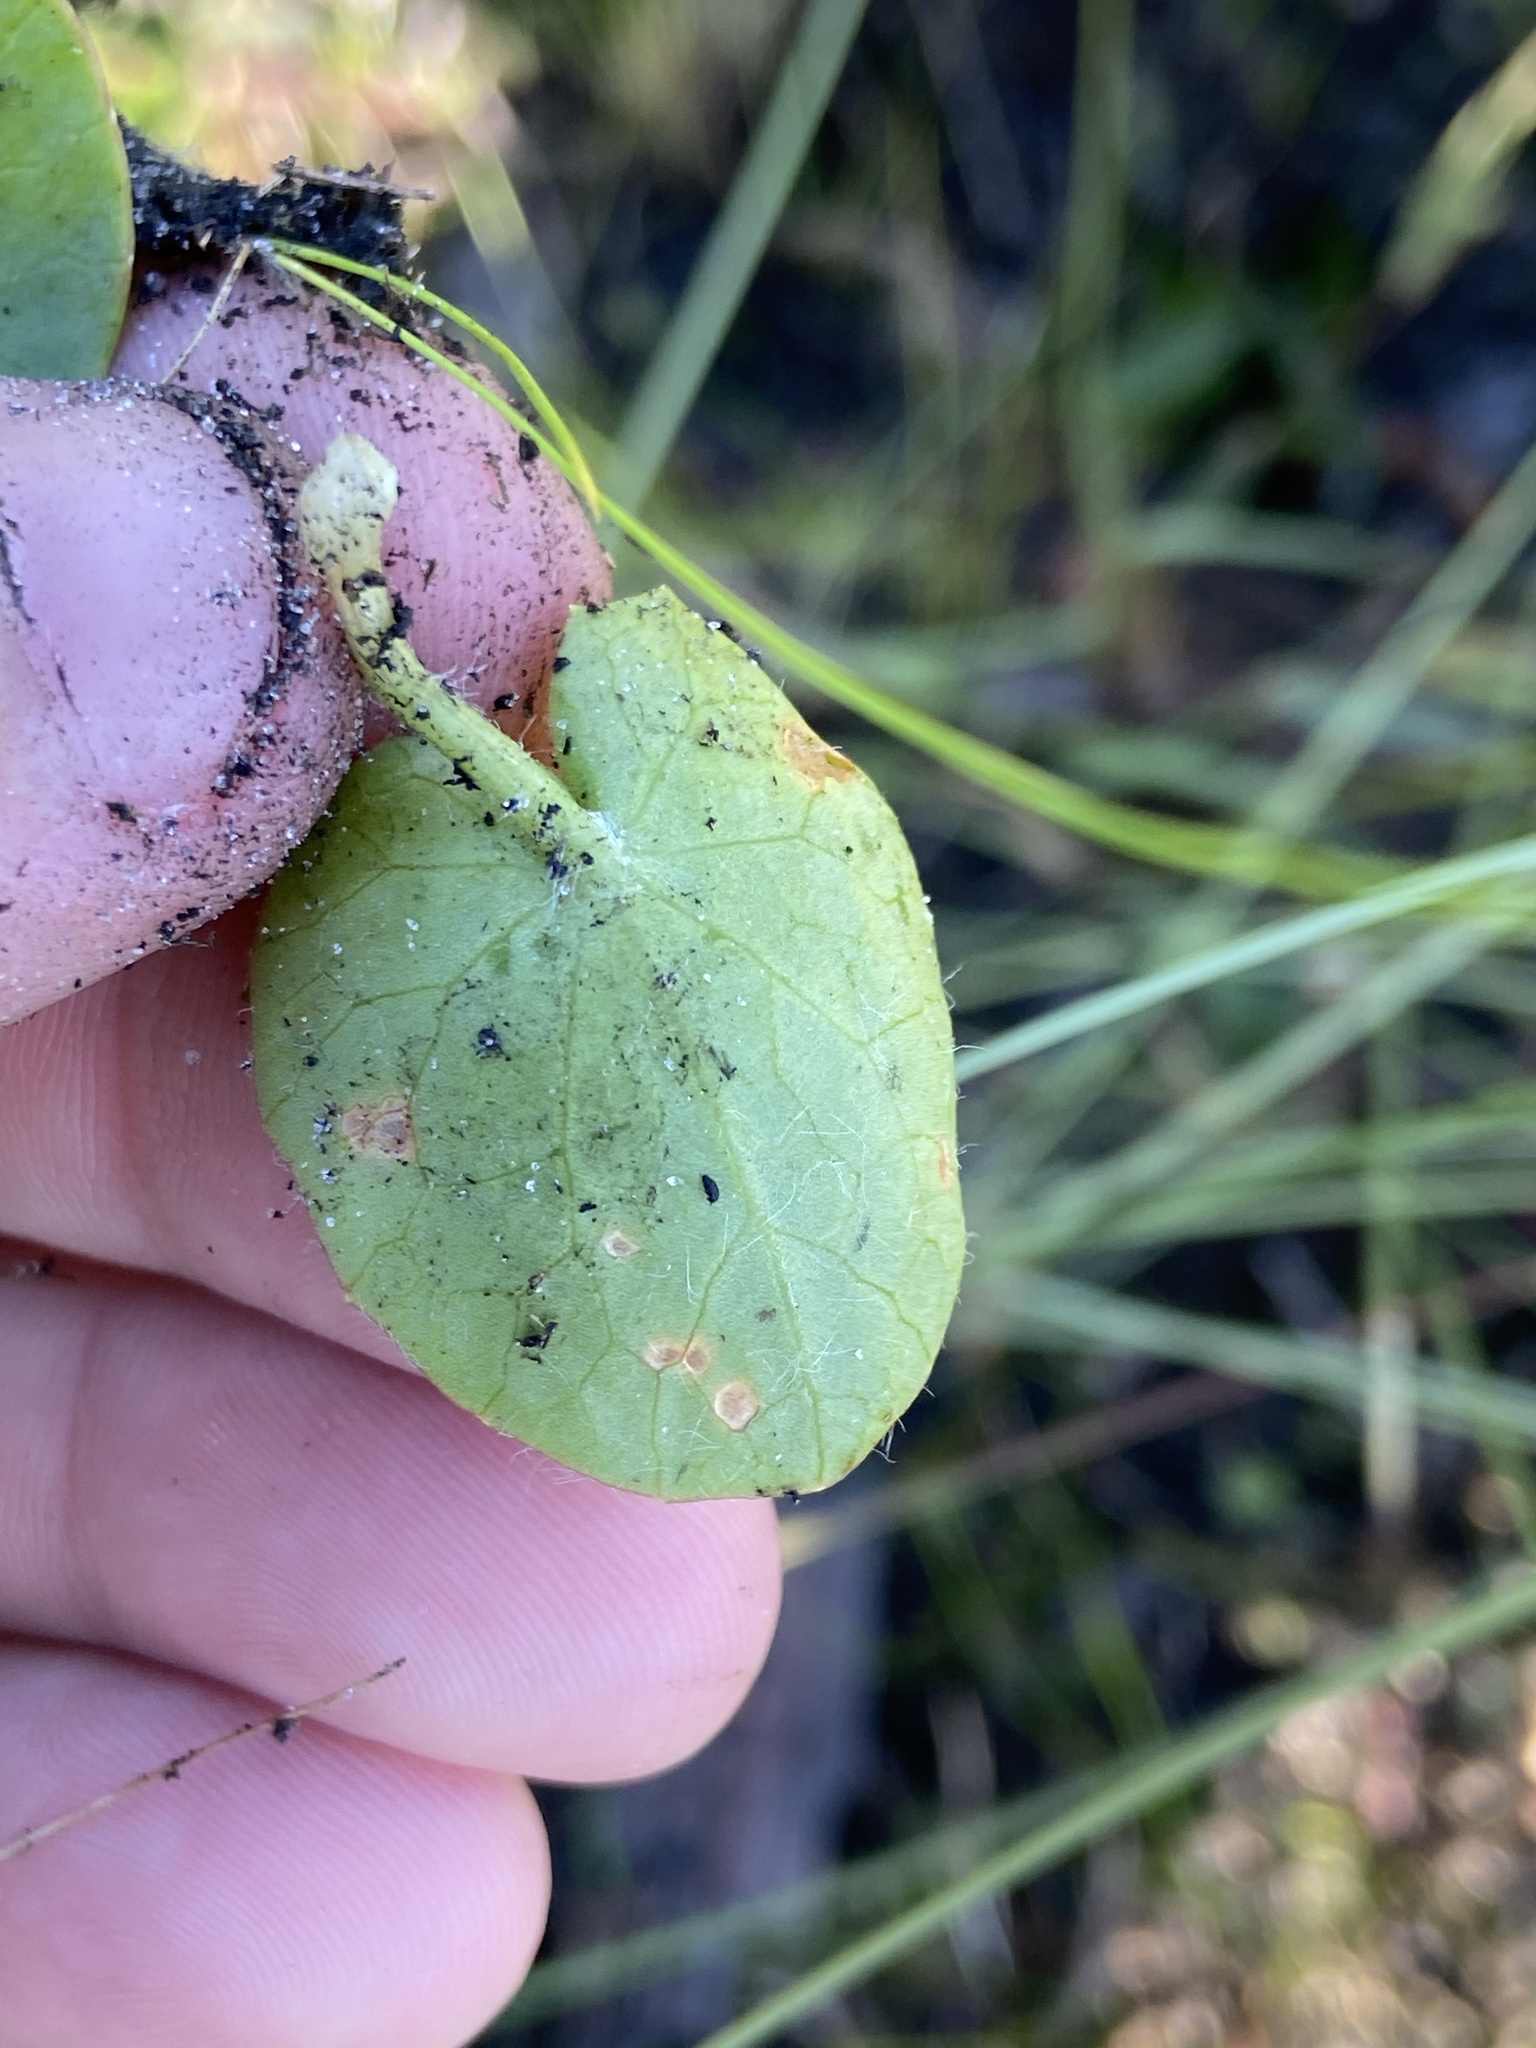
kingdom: Plantae
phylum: Tracheophyta
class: Magnoliopsida
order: Apiales
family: Apiaceae
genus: Centella
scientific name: Centella erecta
